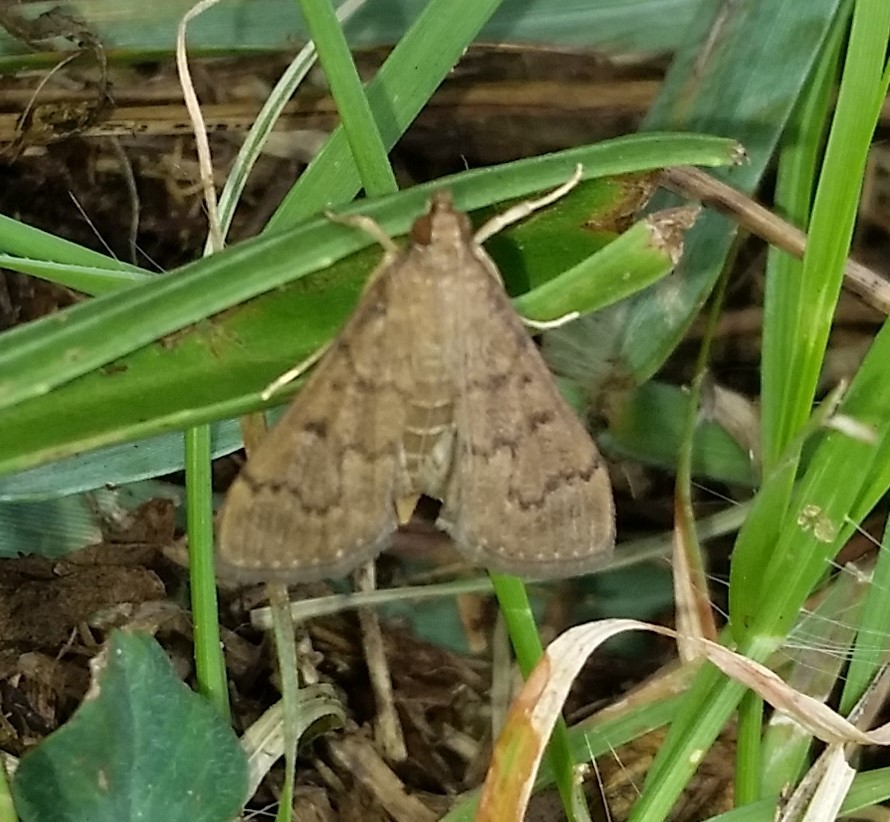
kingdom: Animalia
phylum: Arthropoda
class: Insecta
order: Lepidoptera
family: Crambidae
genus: Herpetogramma
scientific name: Herpetogramma phaeopteralis
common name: Dusky herpetogramma moth
